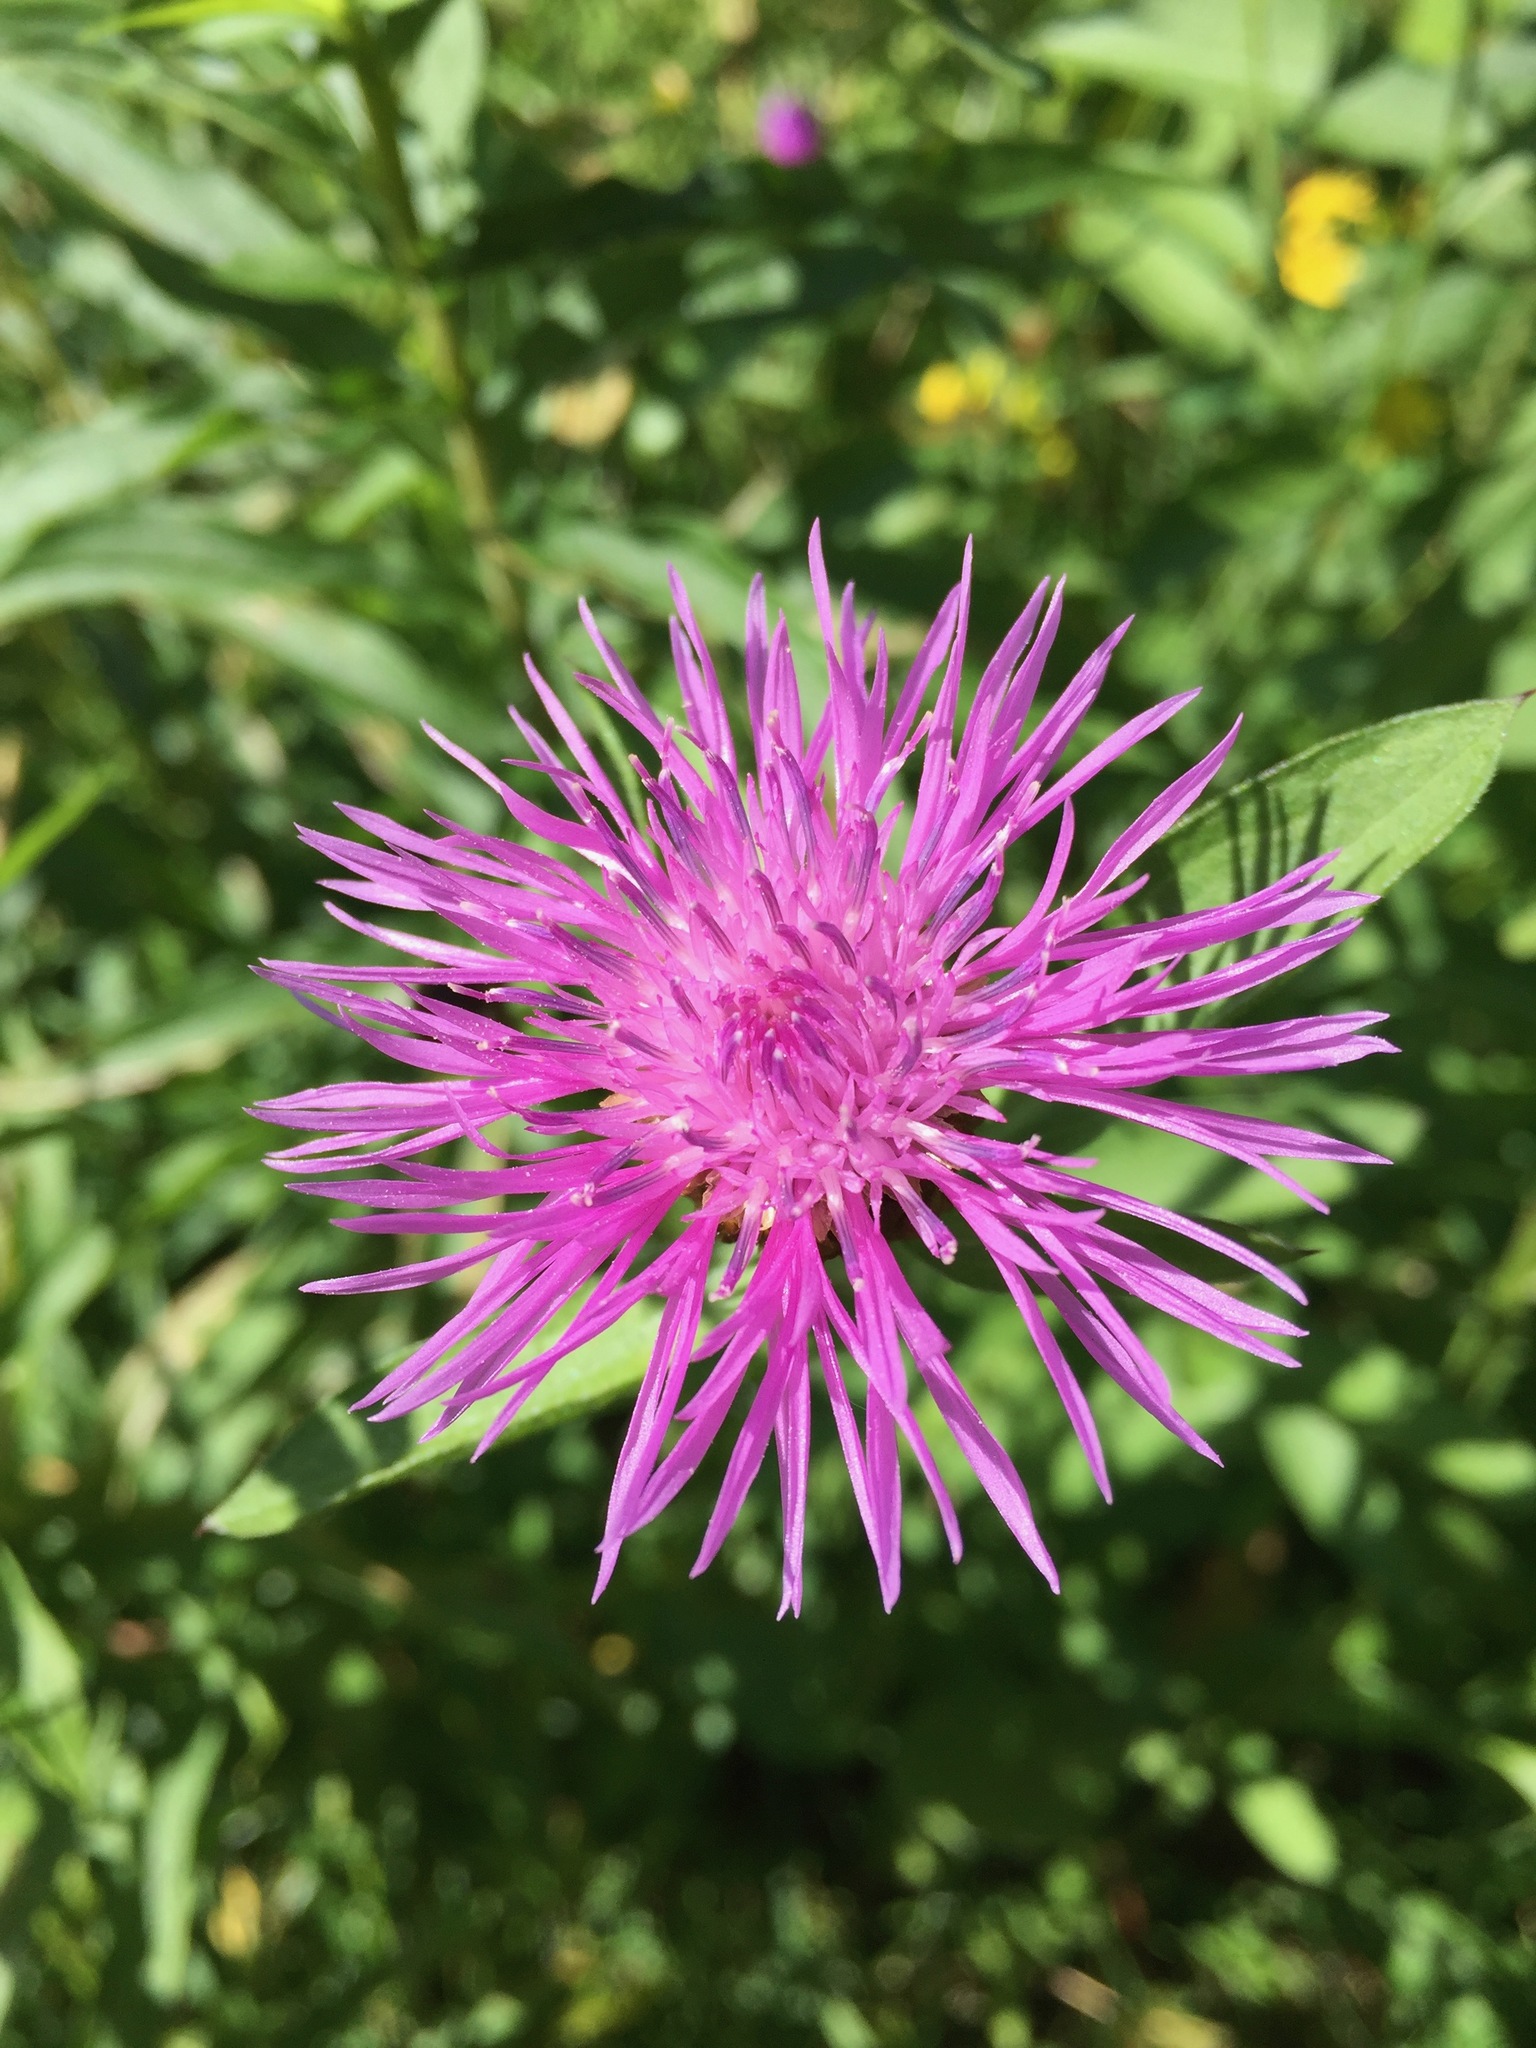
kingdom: Plantae
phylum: Tracheophyta
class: Magnoliopsida
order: Asterales
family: Asteraceae
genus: Centaurea
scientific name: Centaurea jacea
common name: Brown knapweed
